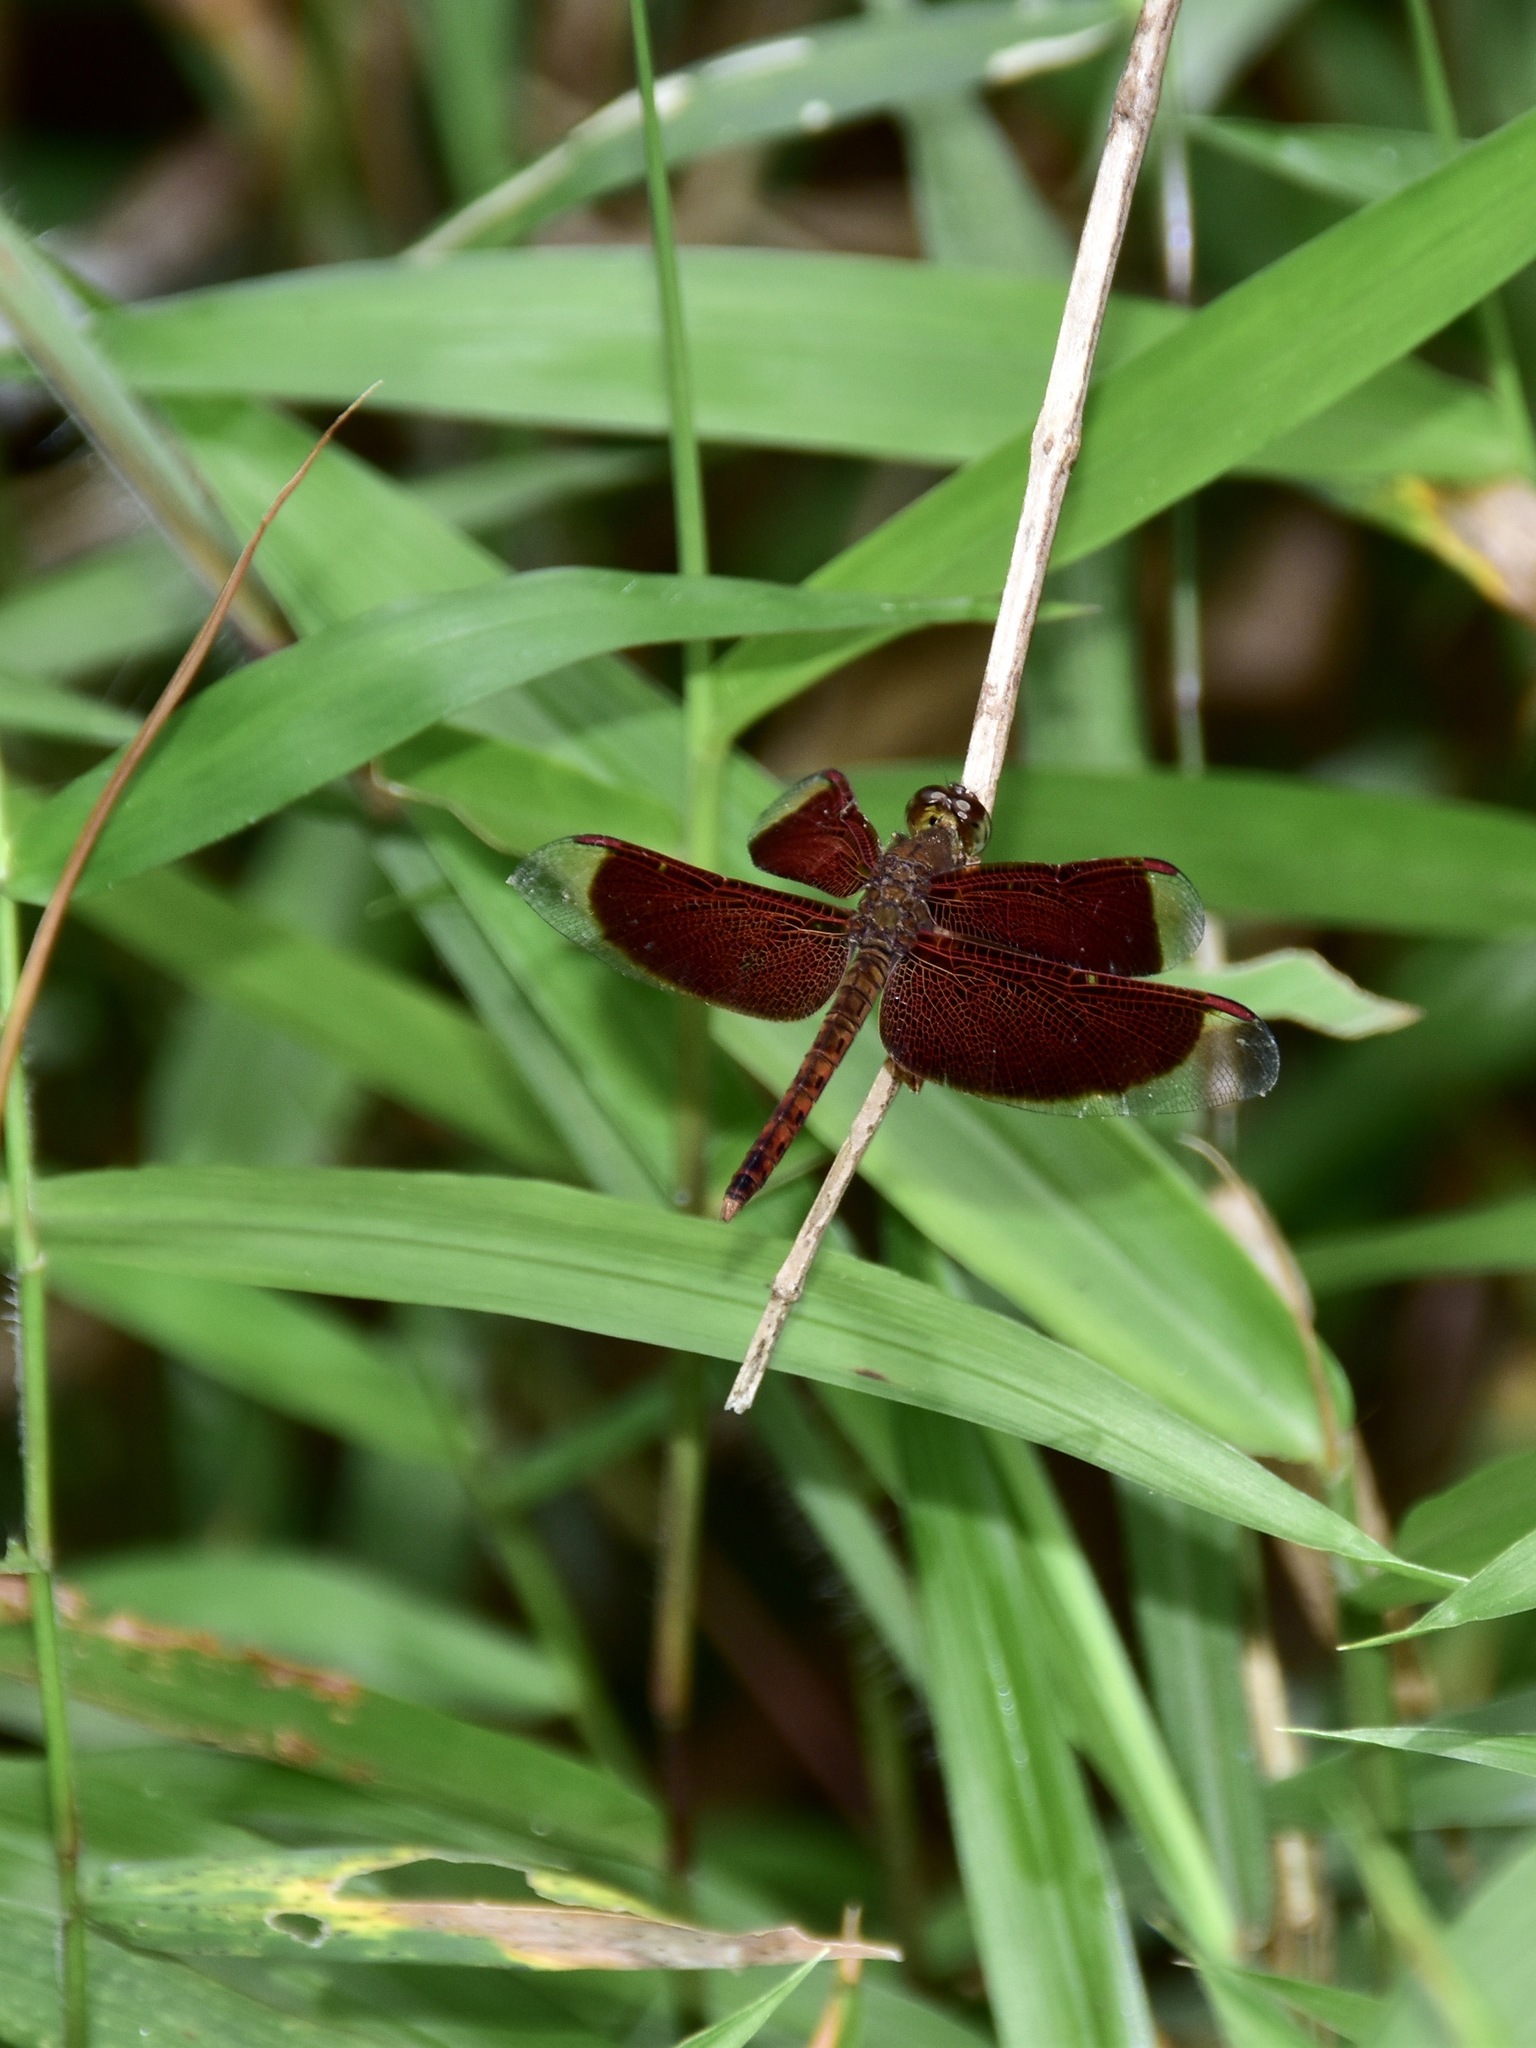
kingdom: Animalia
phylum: Arthropoda
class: Insecta
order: Odonata
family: Libellulidae
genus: Neurothemis
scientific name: Neurothemis fluctuans
